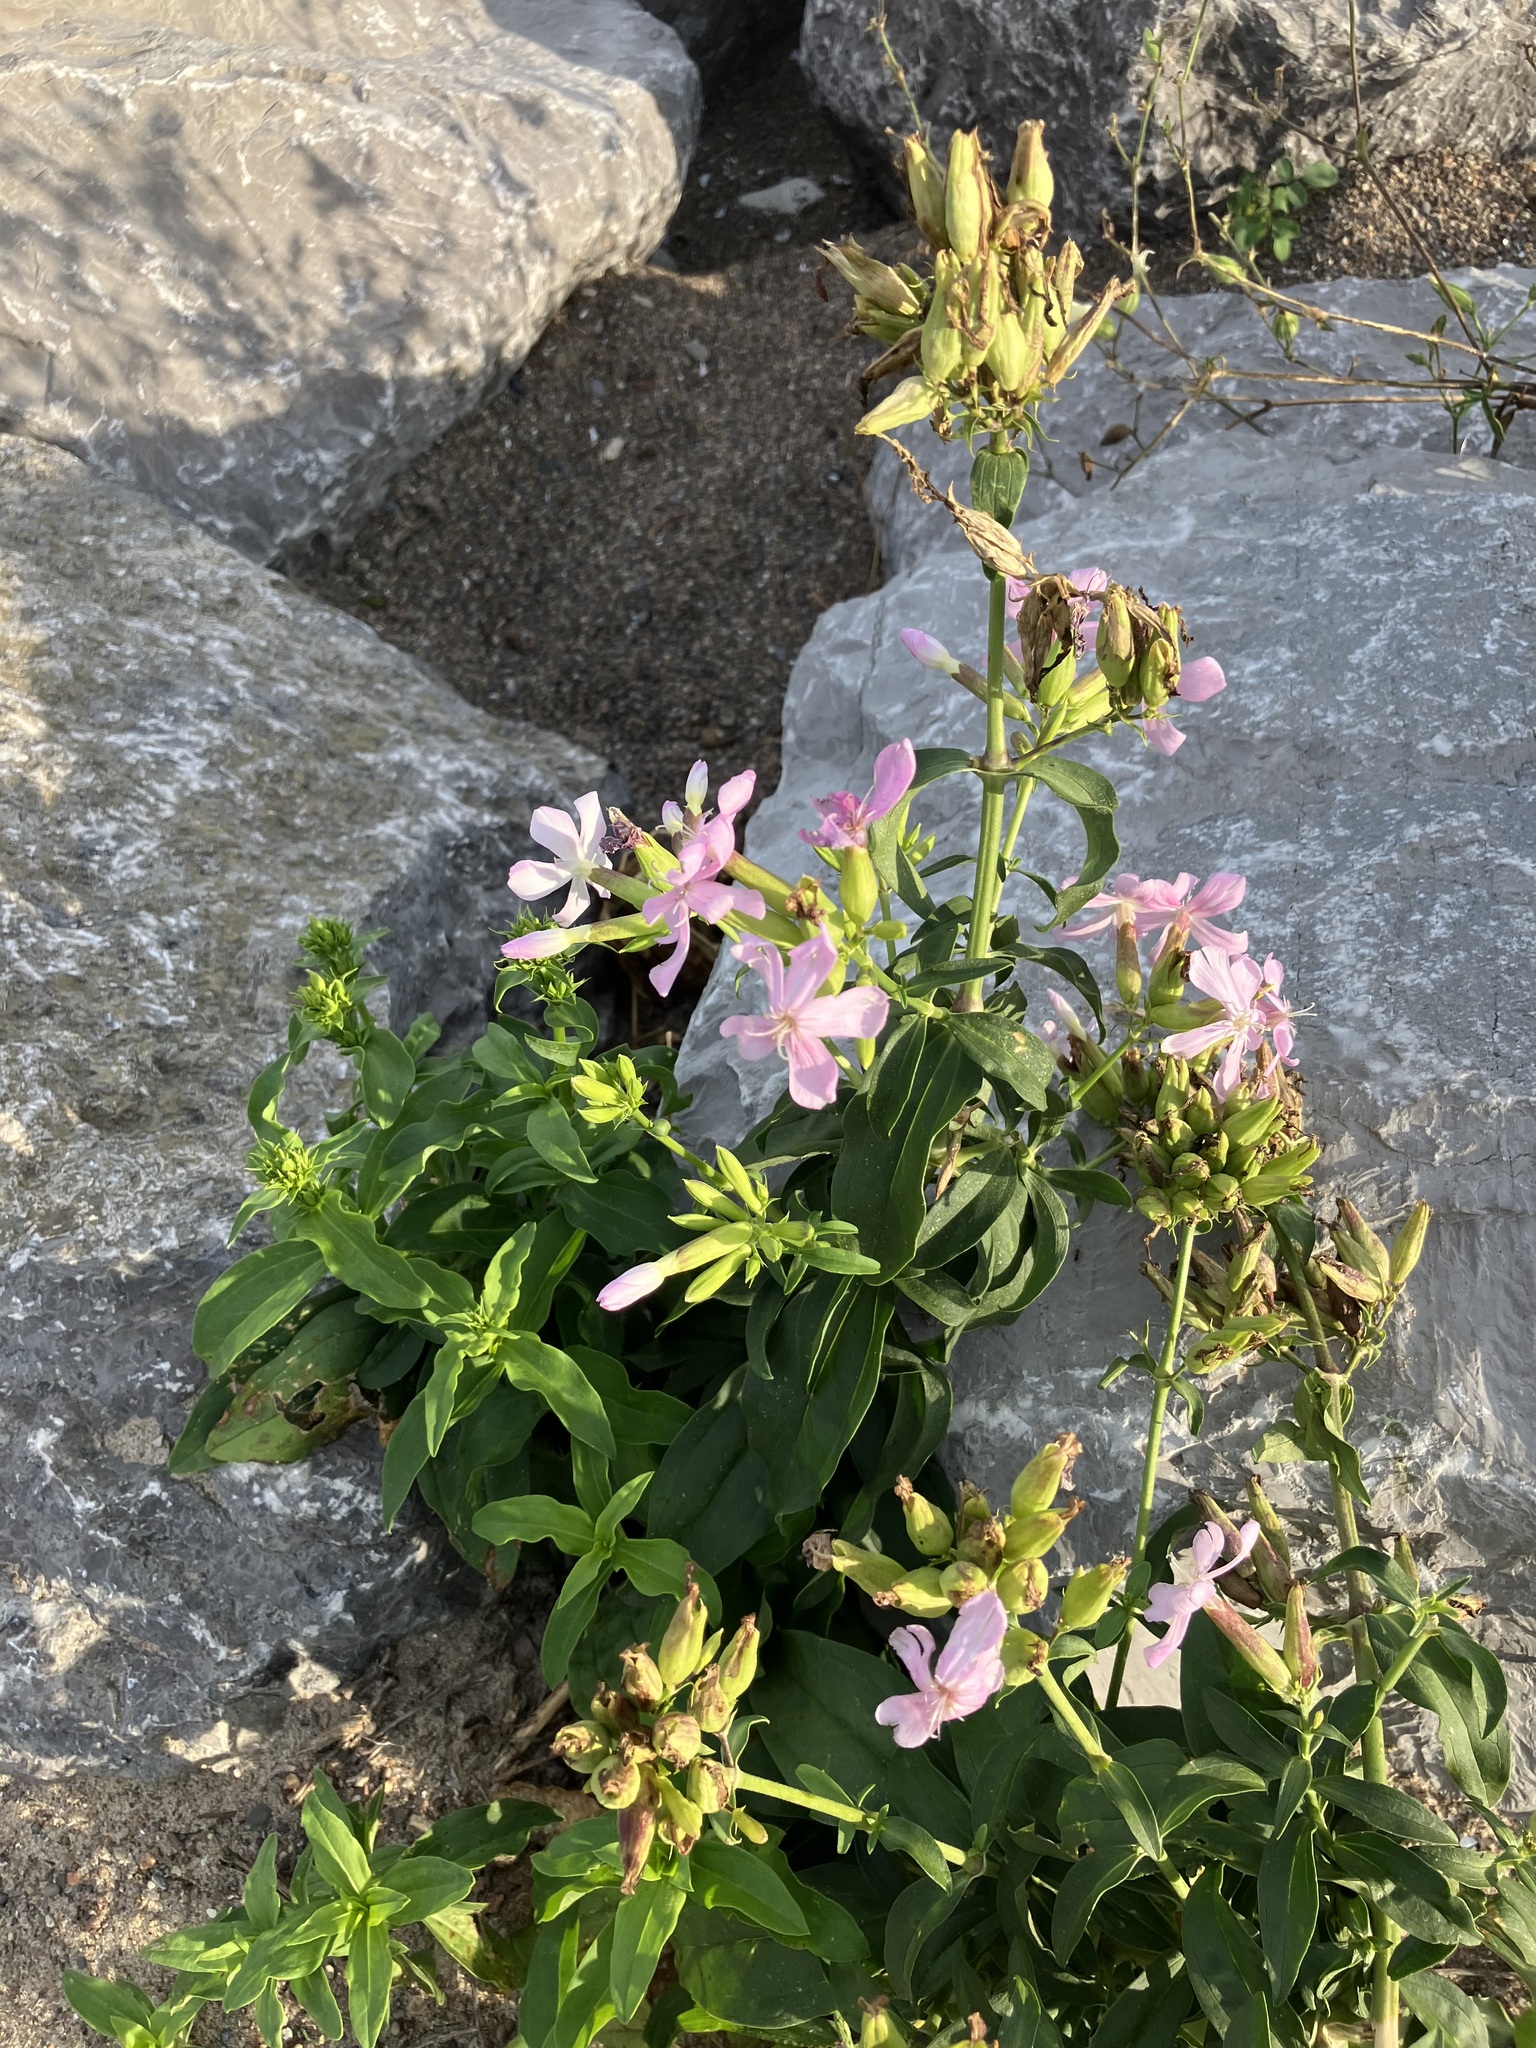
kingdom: Plantae
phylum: Tracheophyta
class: Magnoliopsida
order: Caryophyllales
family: Caryophyllaceae
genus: Saponaria
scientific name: Saponaria officinalis
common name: Soapwort
